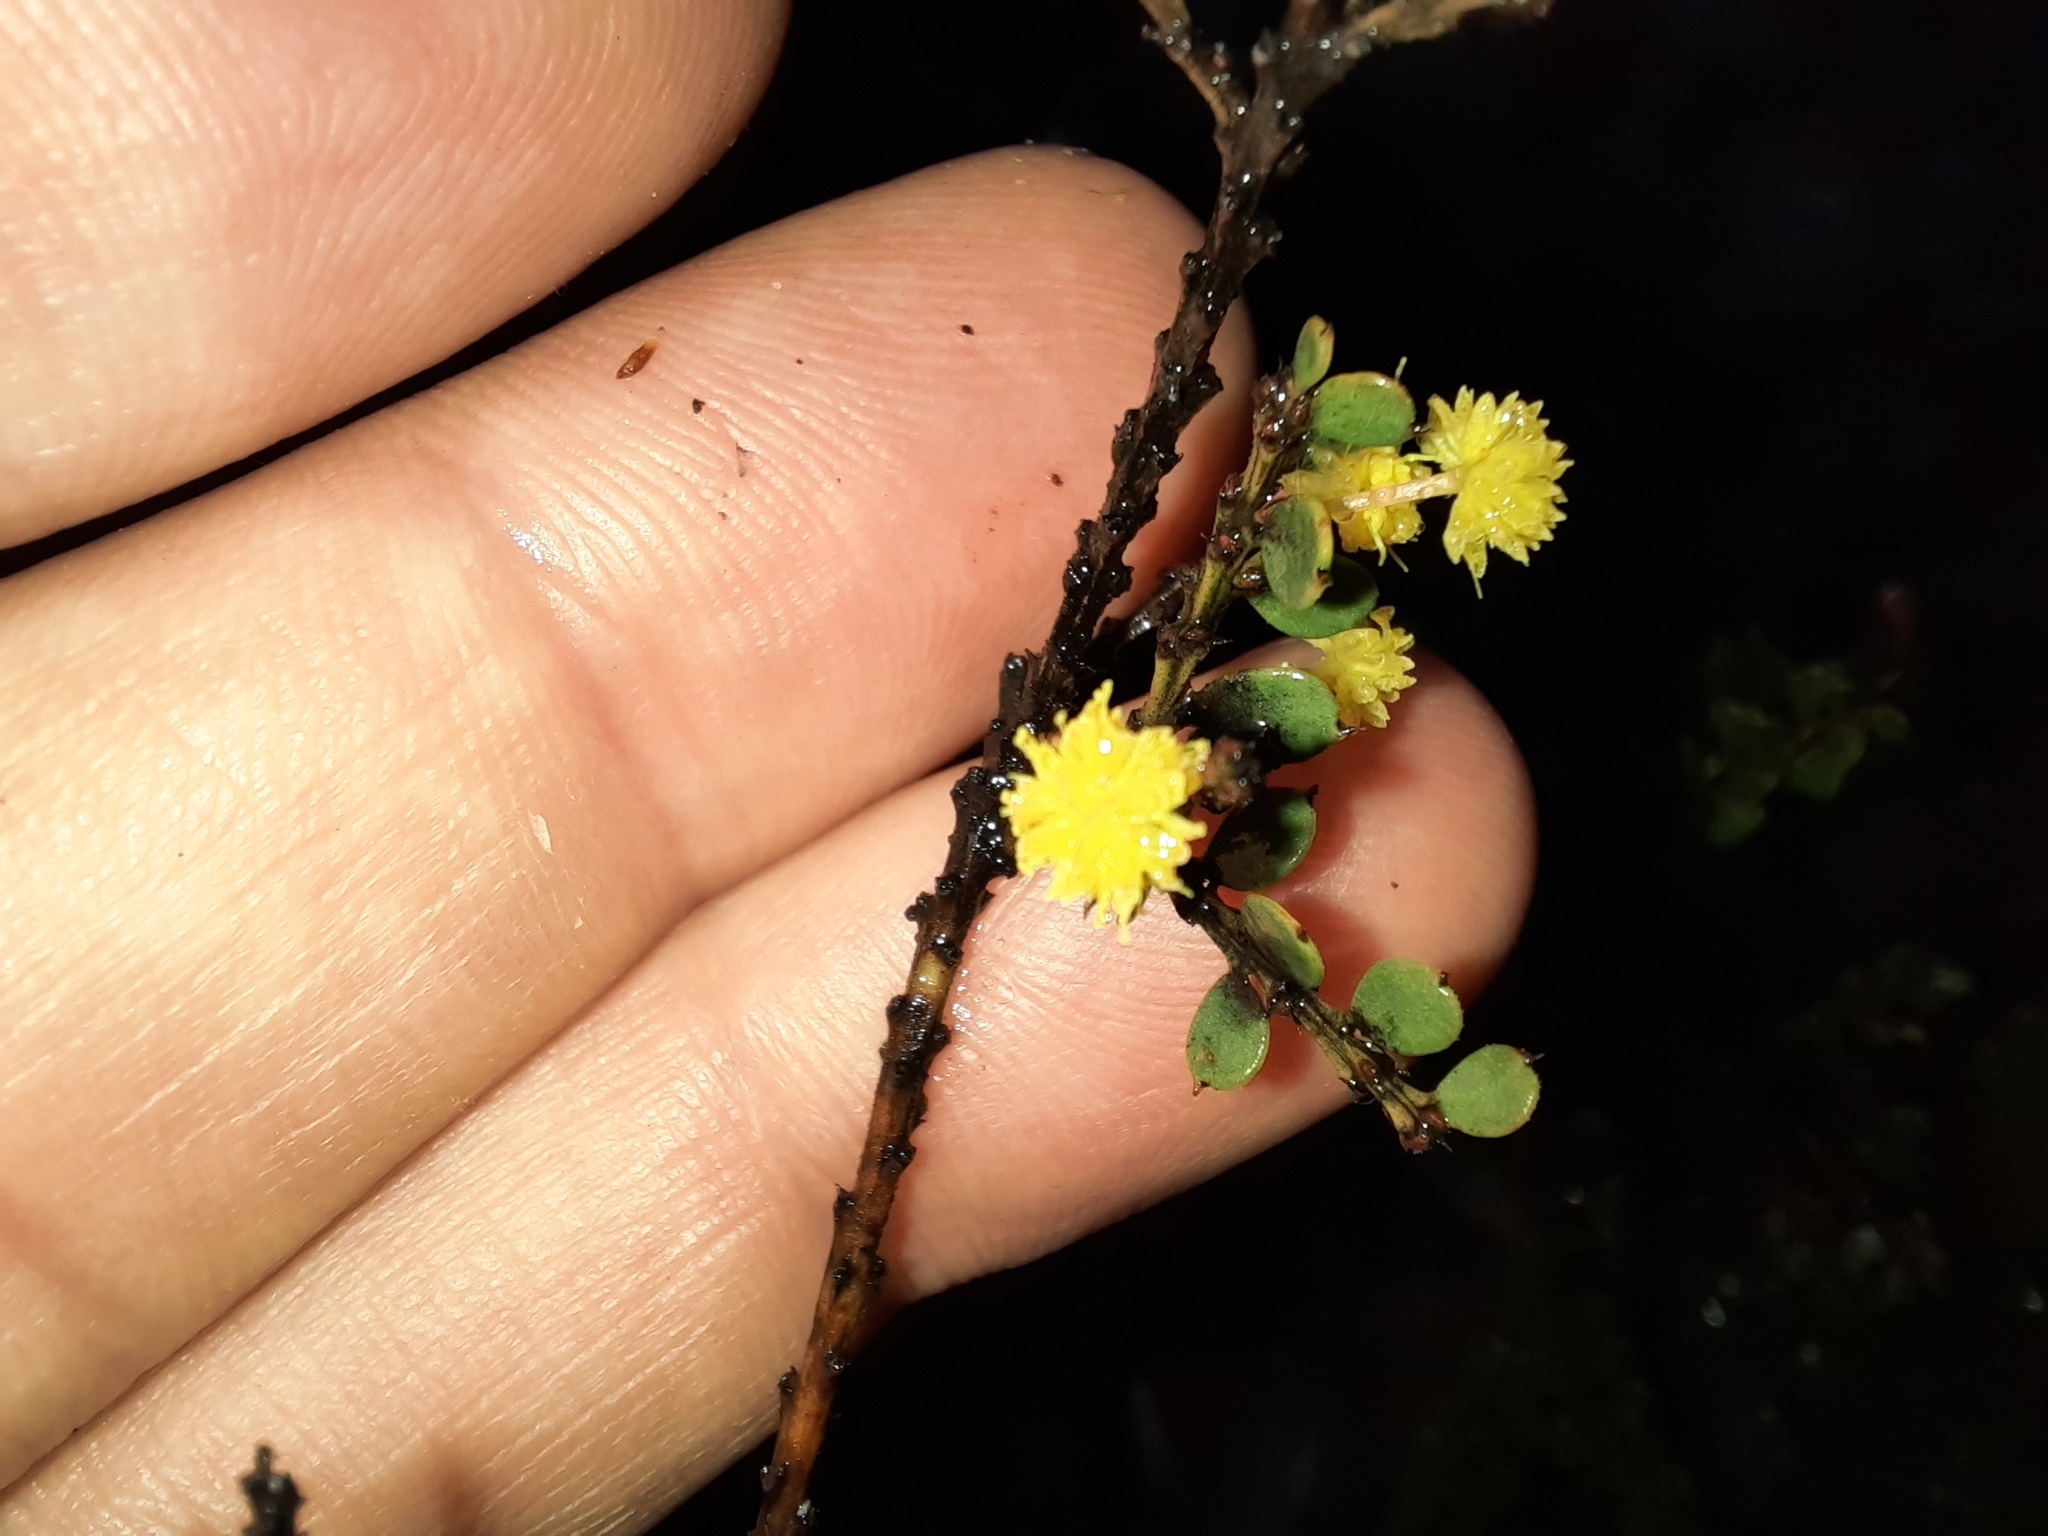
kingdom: Plantae
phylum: Tracheophyta
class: Magnoliopsida
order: Fabales
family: Fabaceae
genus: Acacia
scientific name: Acacia acinacea
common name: Gold-dust acacia
